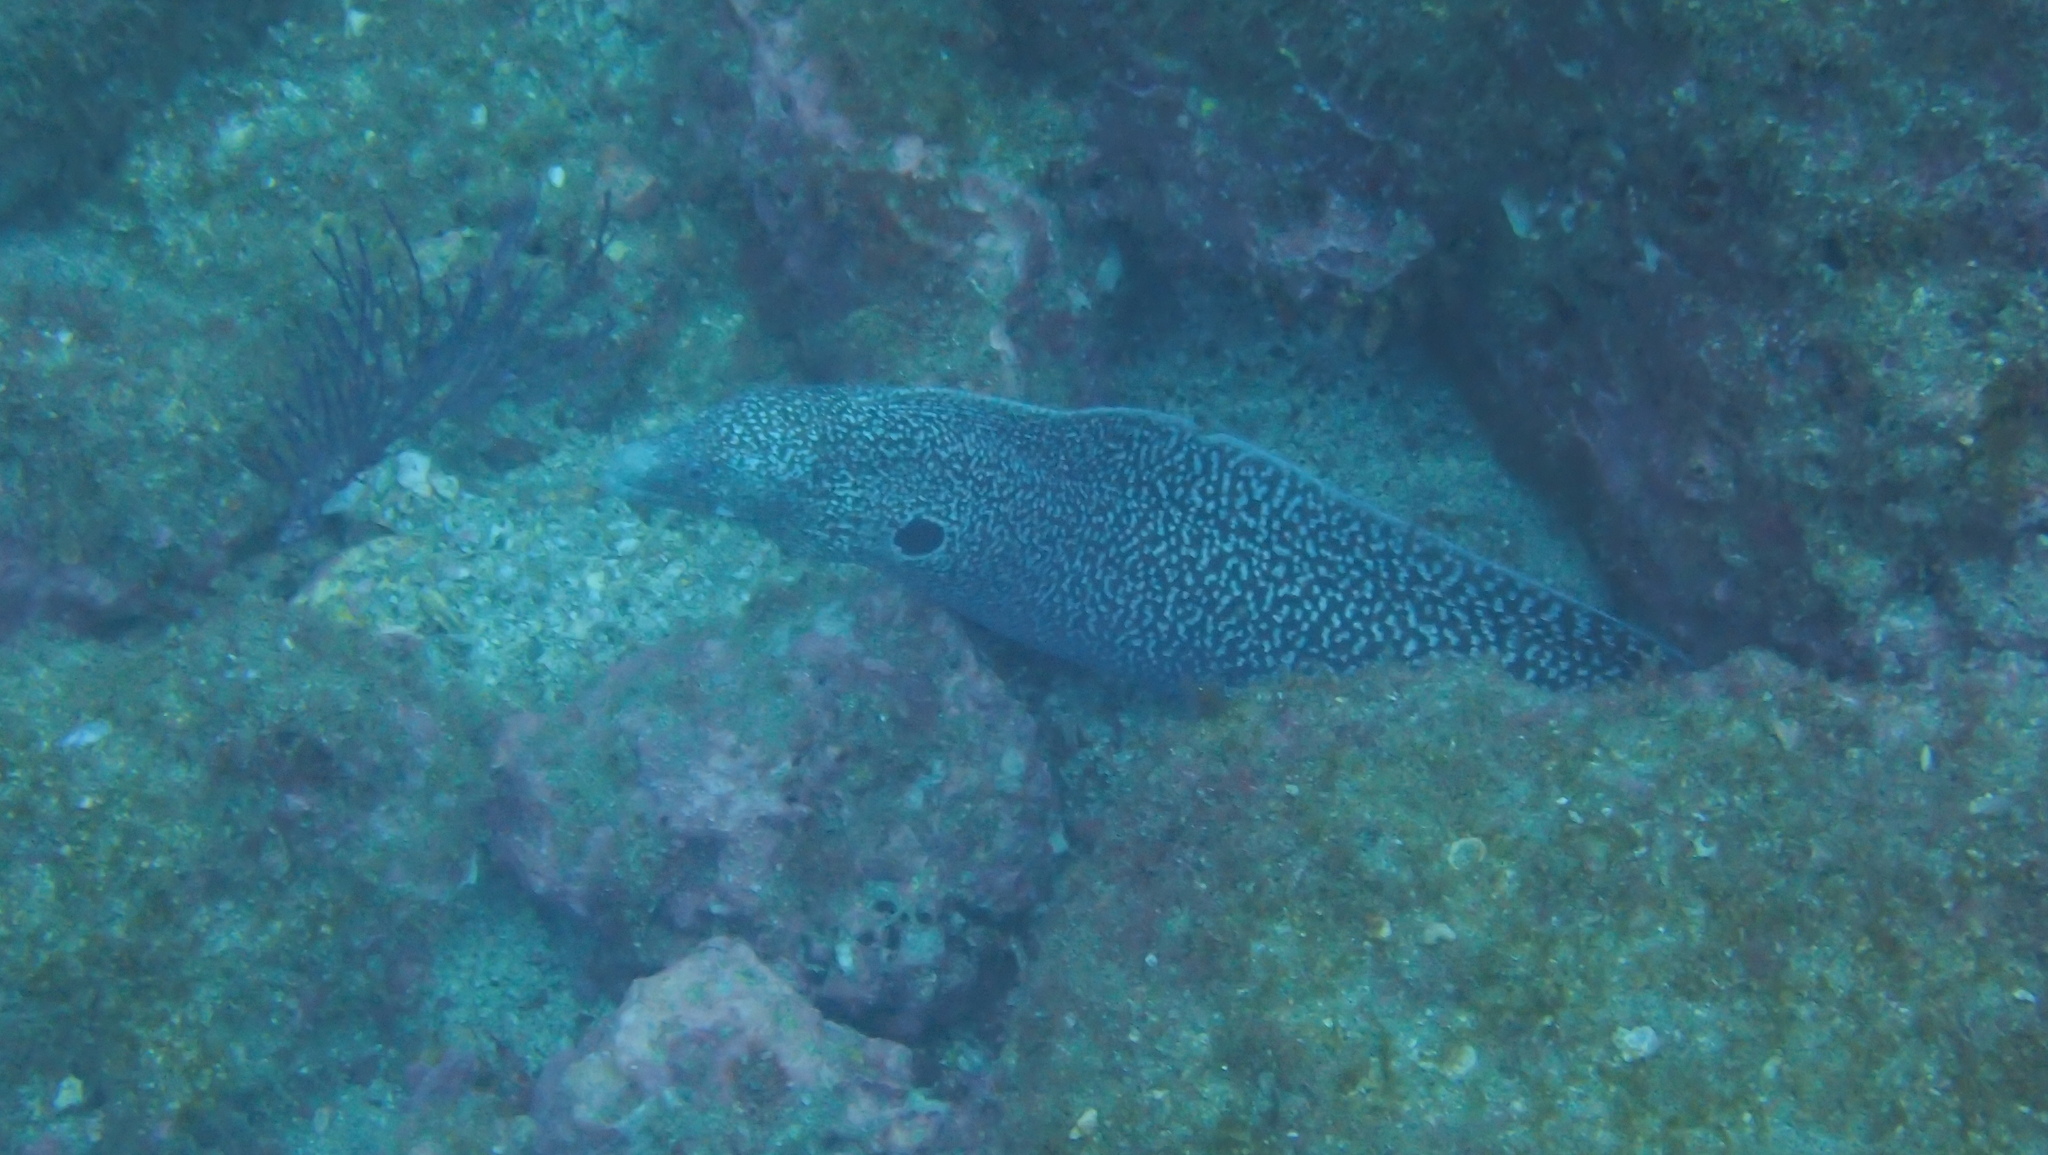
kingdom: Animalia
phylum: Chordata
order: Anguilliformes
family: Muraenidae
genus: Muraena
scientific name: Muraena clepsydra
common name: Hourglass moray
